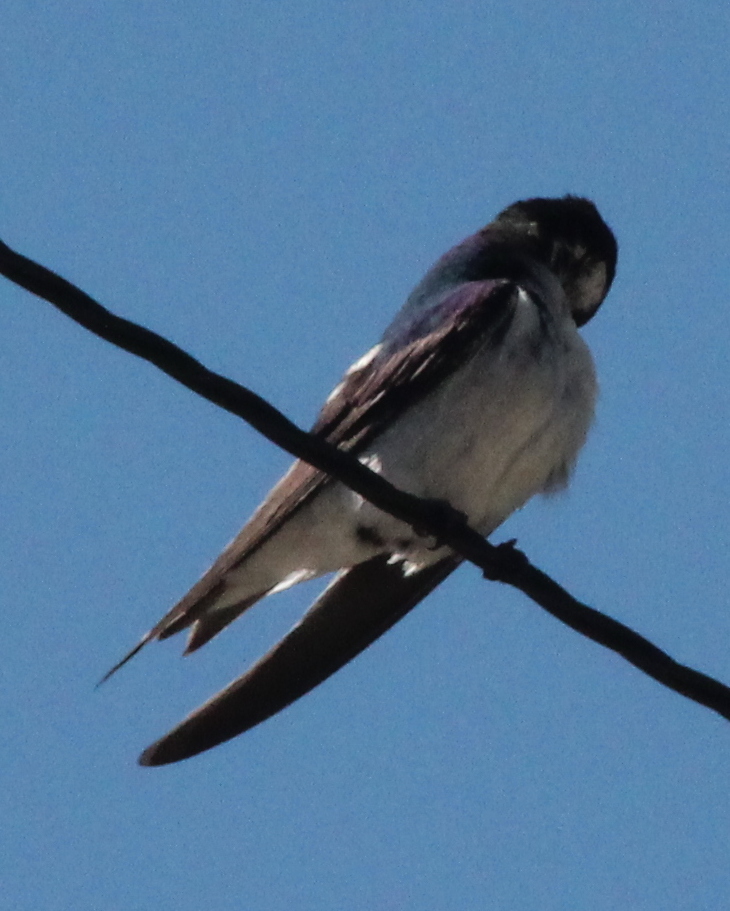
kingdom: Animalia
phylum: Chordata
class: Aves
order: Passeriformes
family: Hirundinidae
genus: Tachycineta
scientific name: Tachycineta bicolor
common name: Tree swallow
